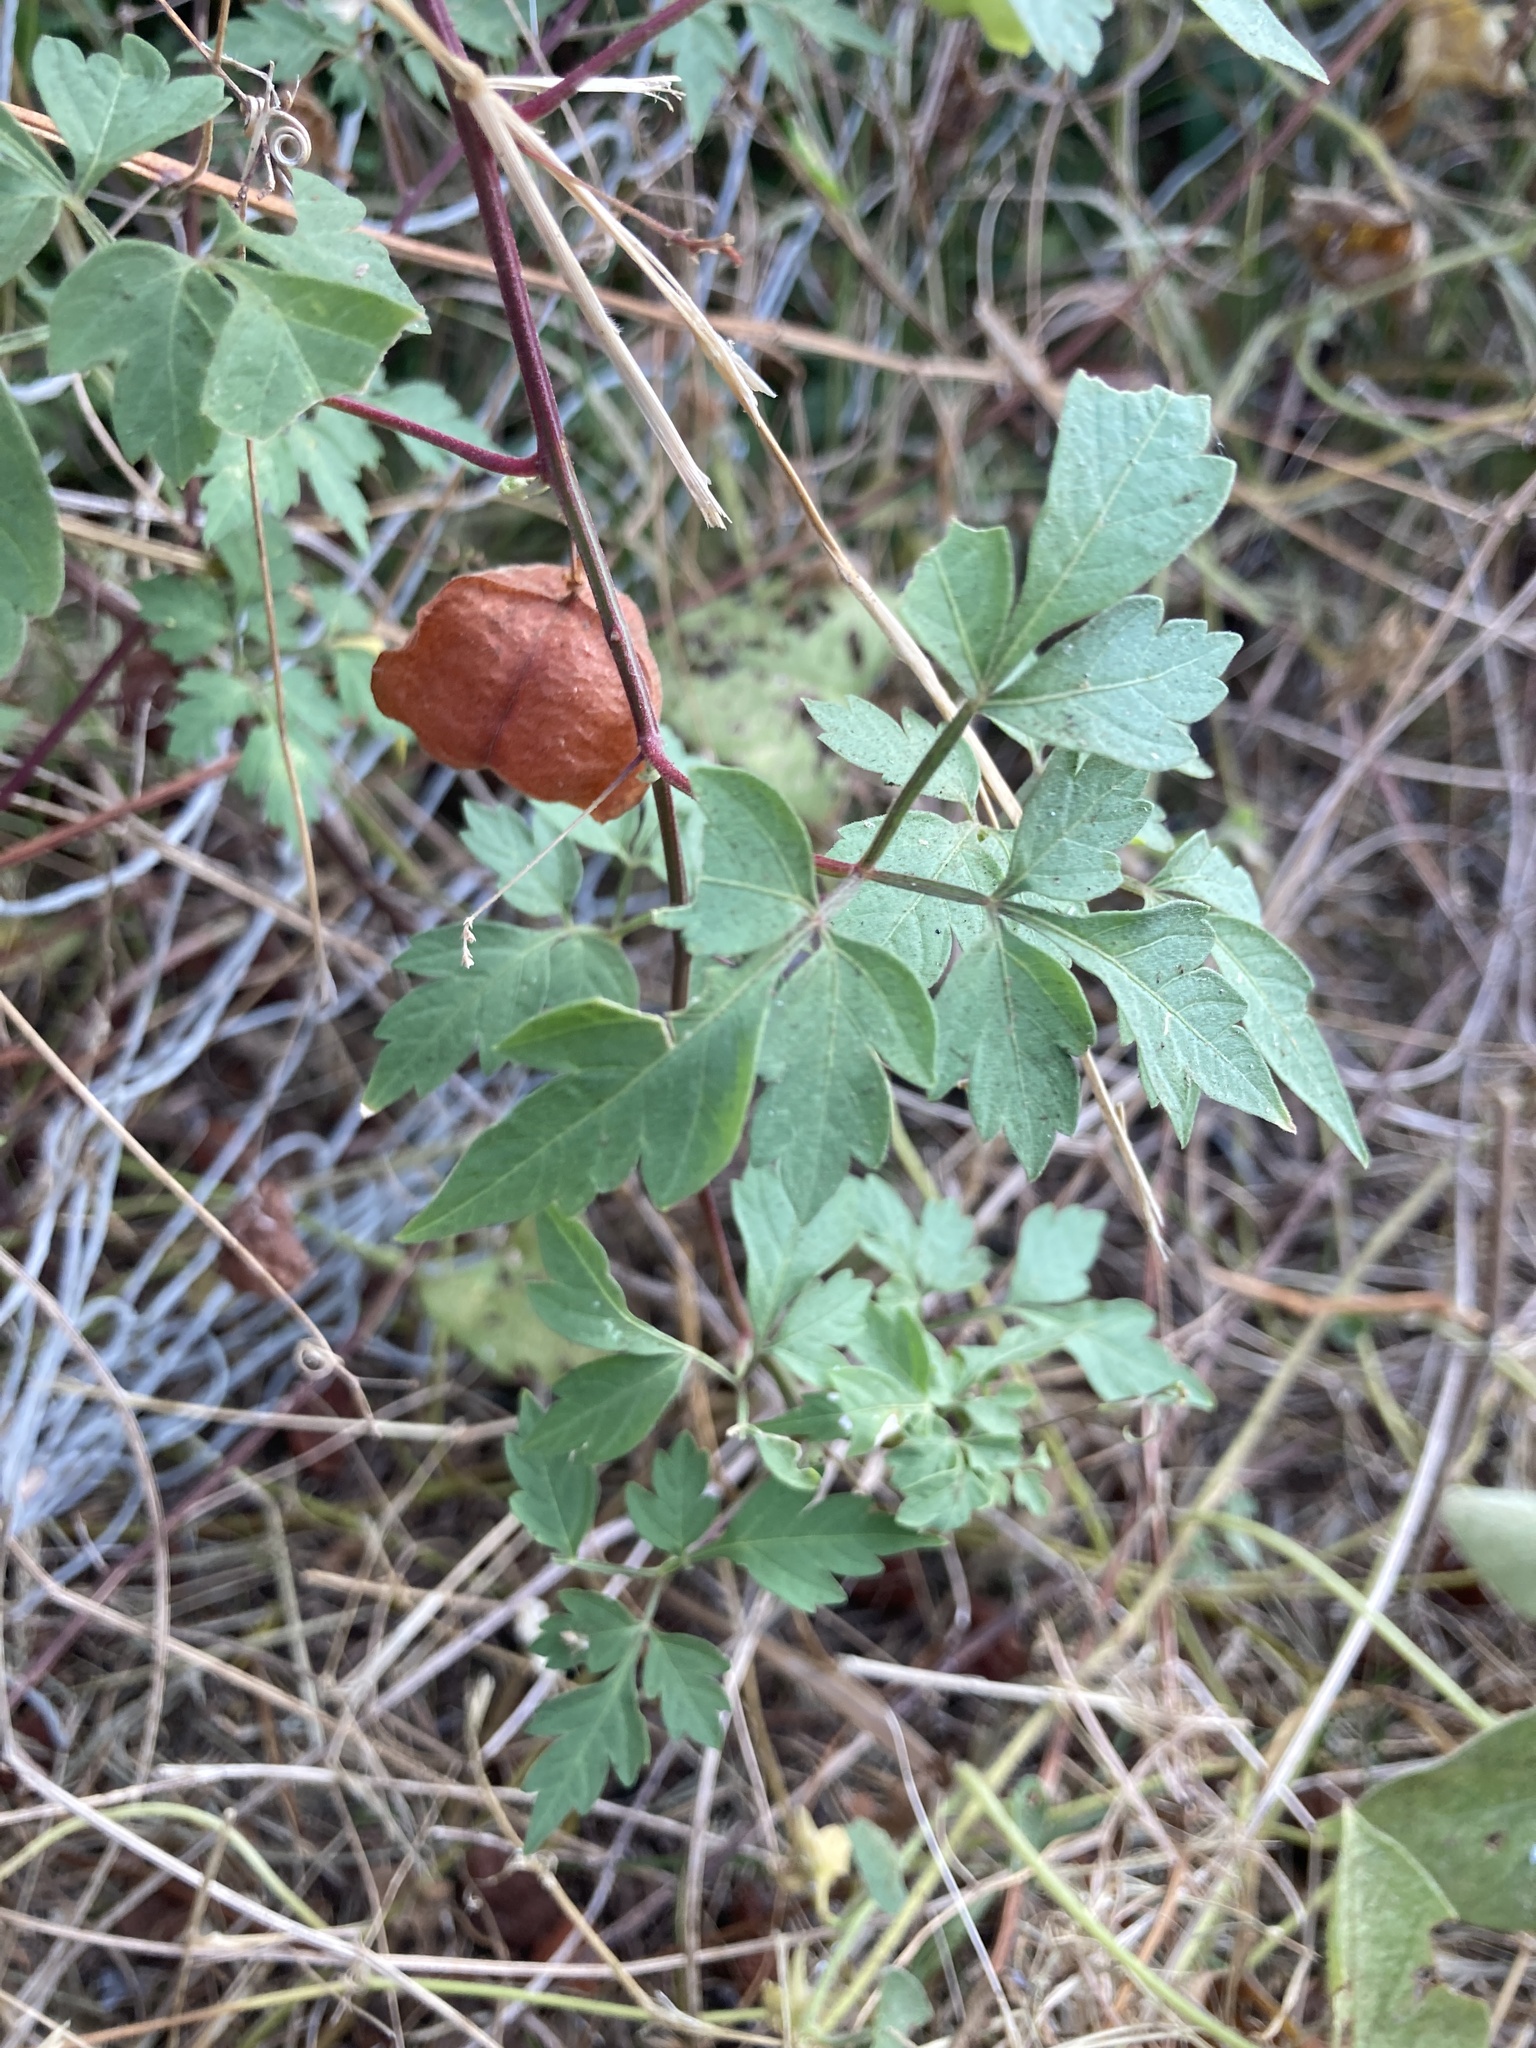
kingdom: Plantae
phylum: Tracheophyta
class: Magnoliopsida
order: Sapindales
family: Sapindaceae
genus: Cardiospermum
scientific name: Cardiospermum halicacabum
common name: Balloon vine
